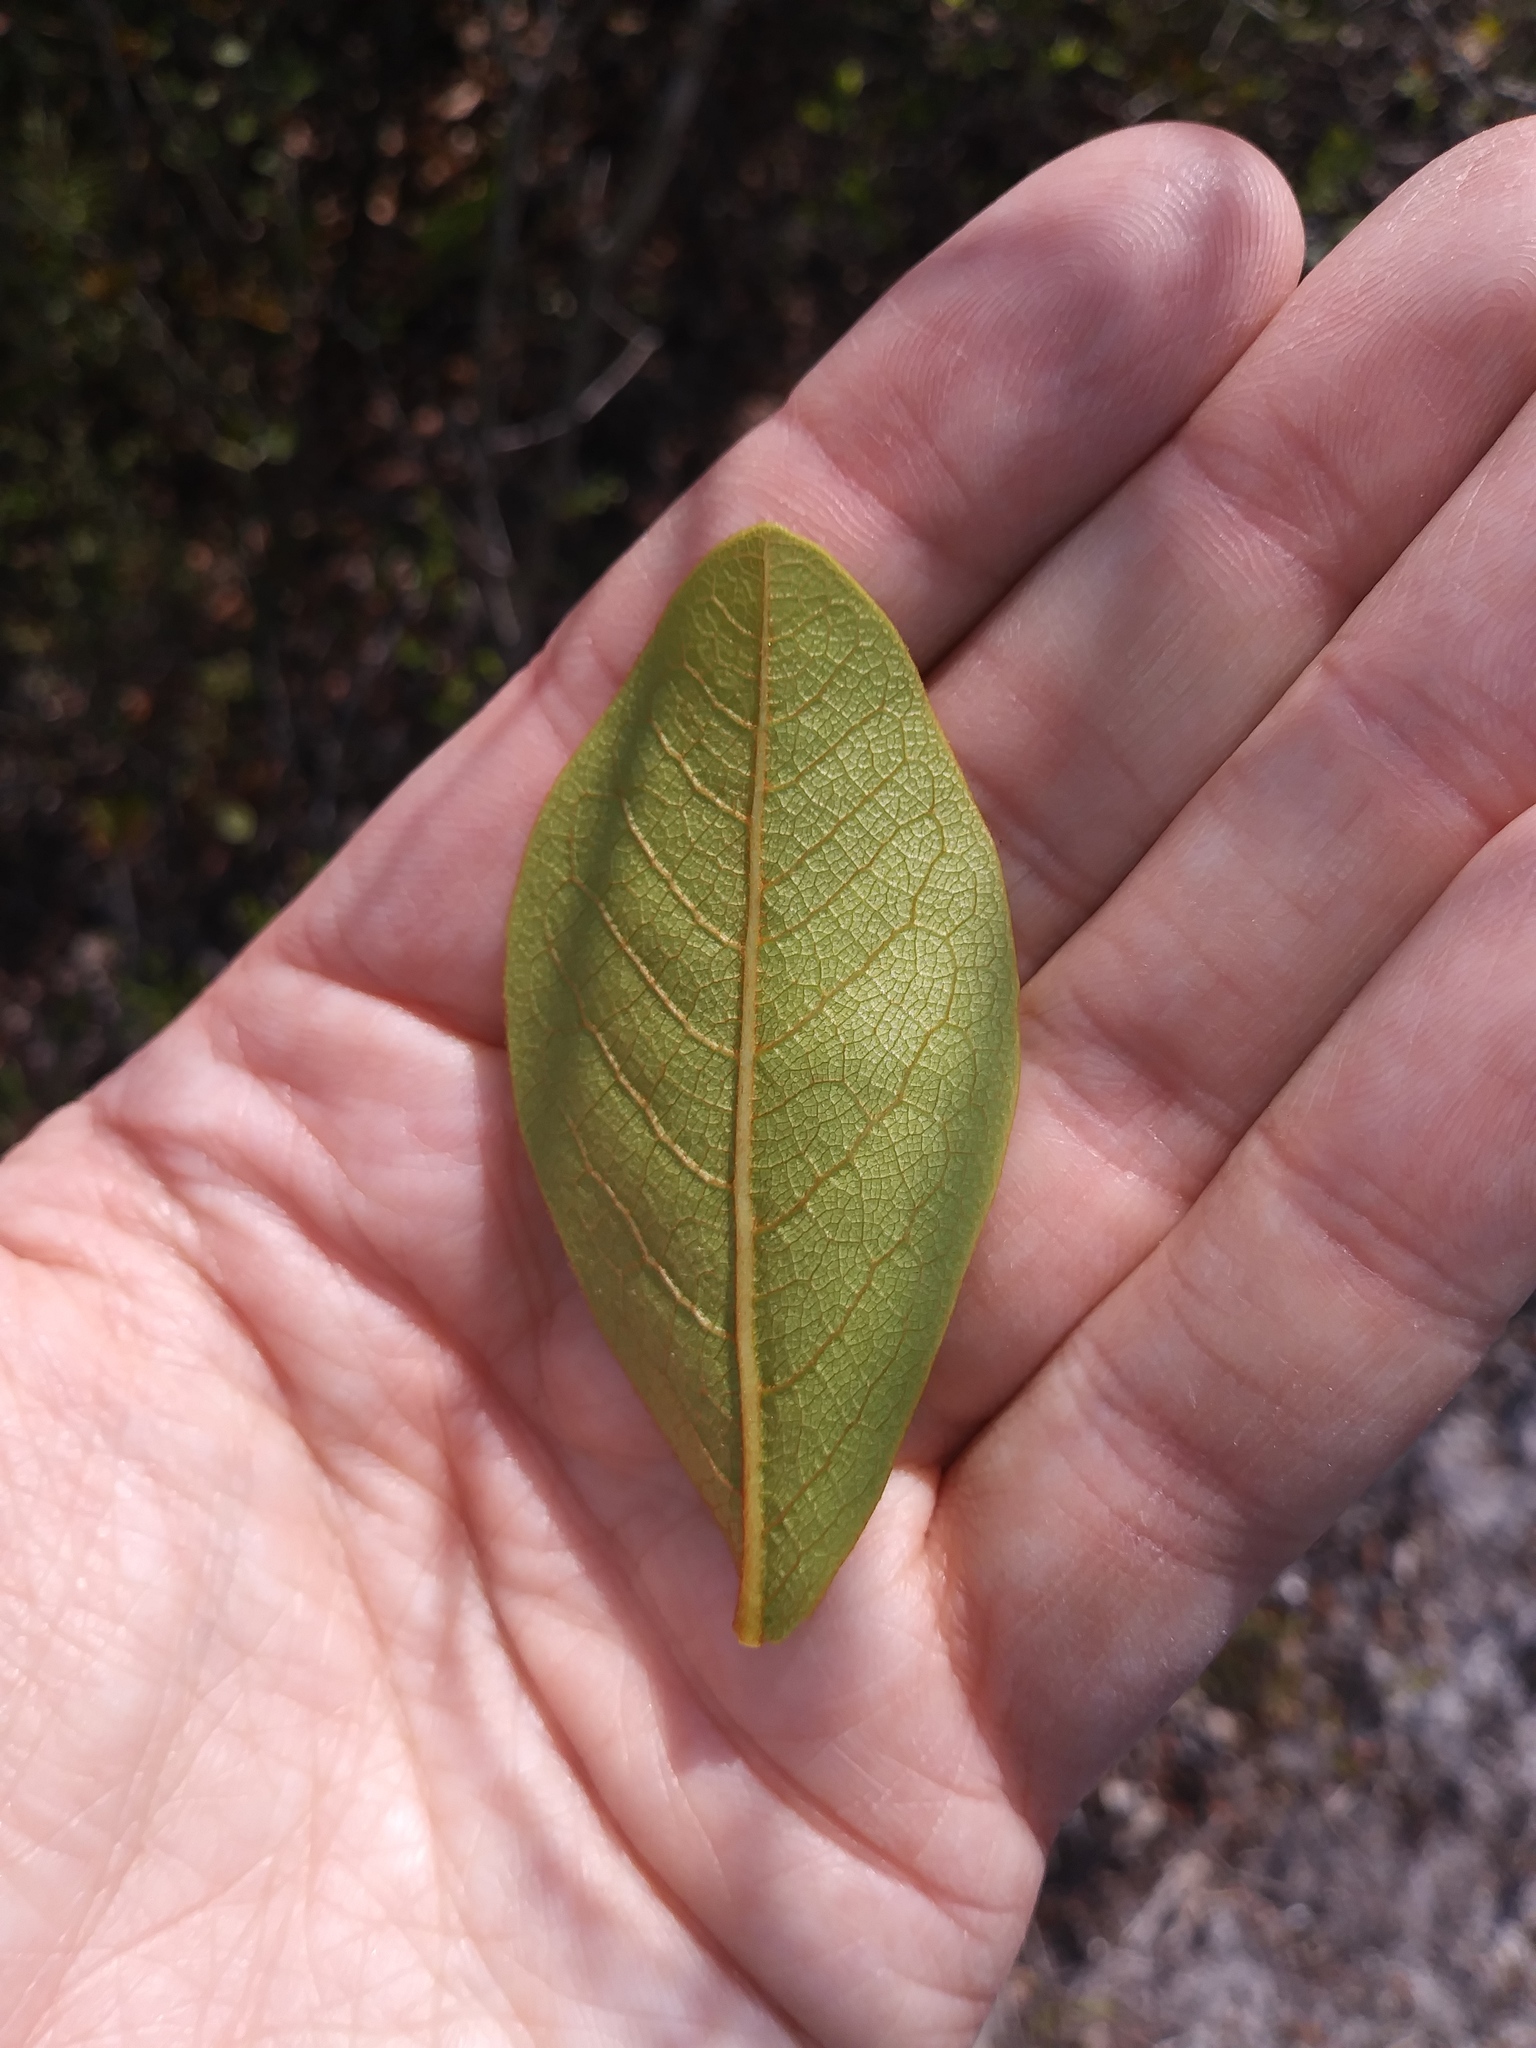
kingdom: Plantae
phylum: Tracheophyta
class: Magnoliopsida
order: Magnoliales
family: Annonaceae
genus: Asimina
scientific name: Asimina obovata
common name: Flag pawpaw
